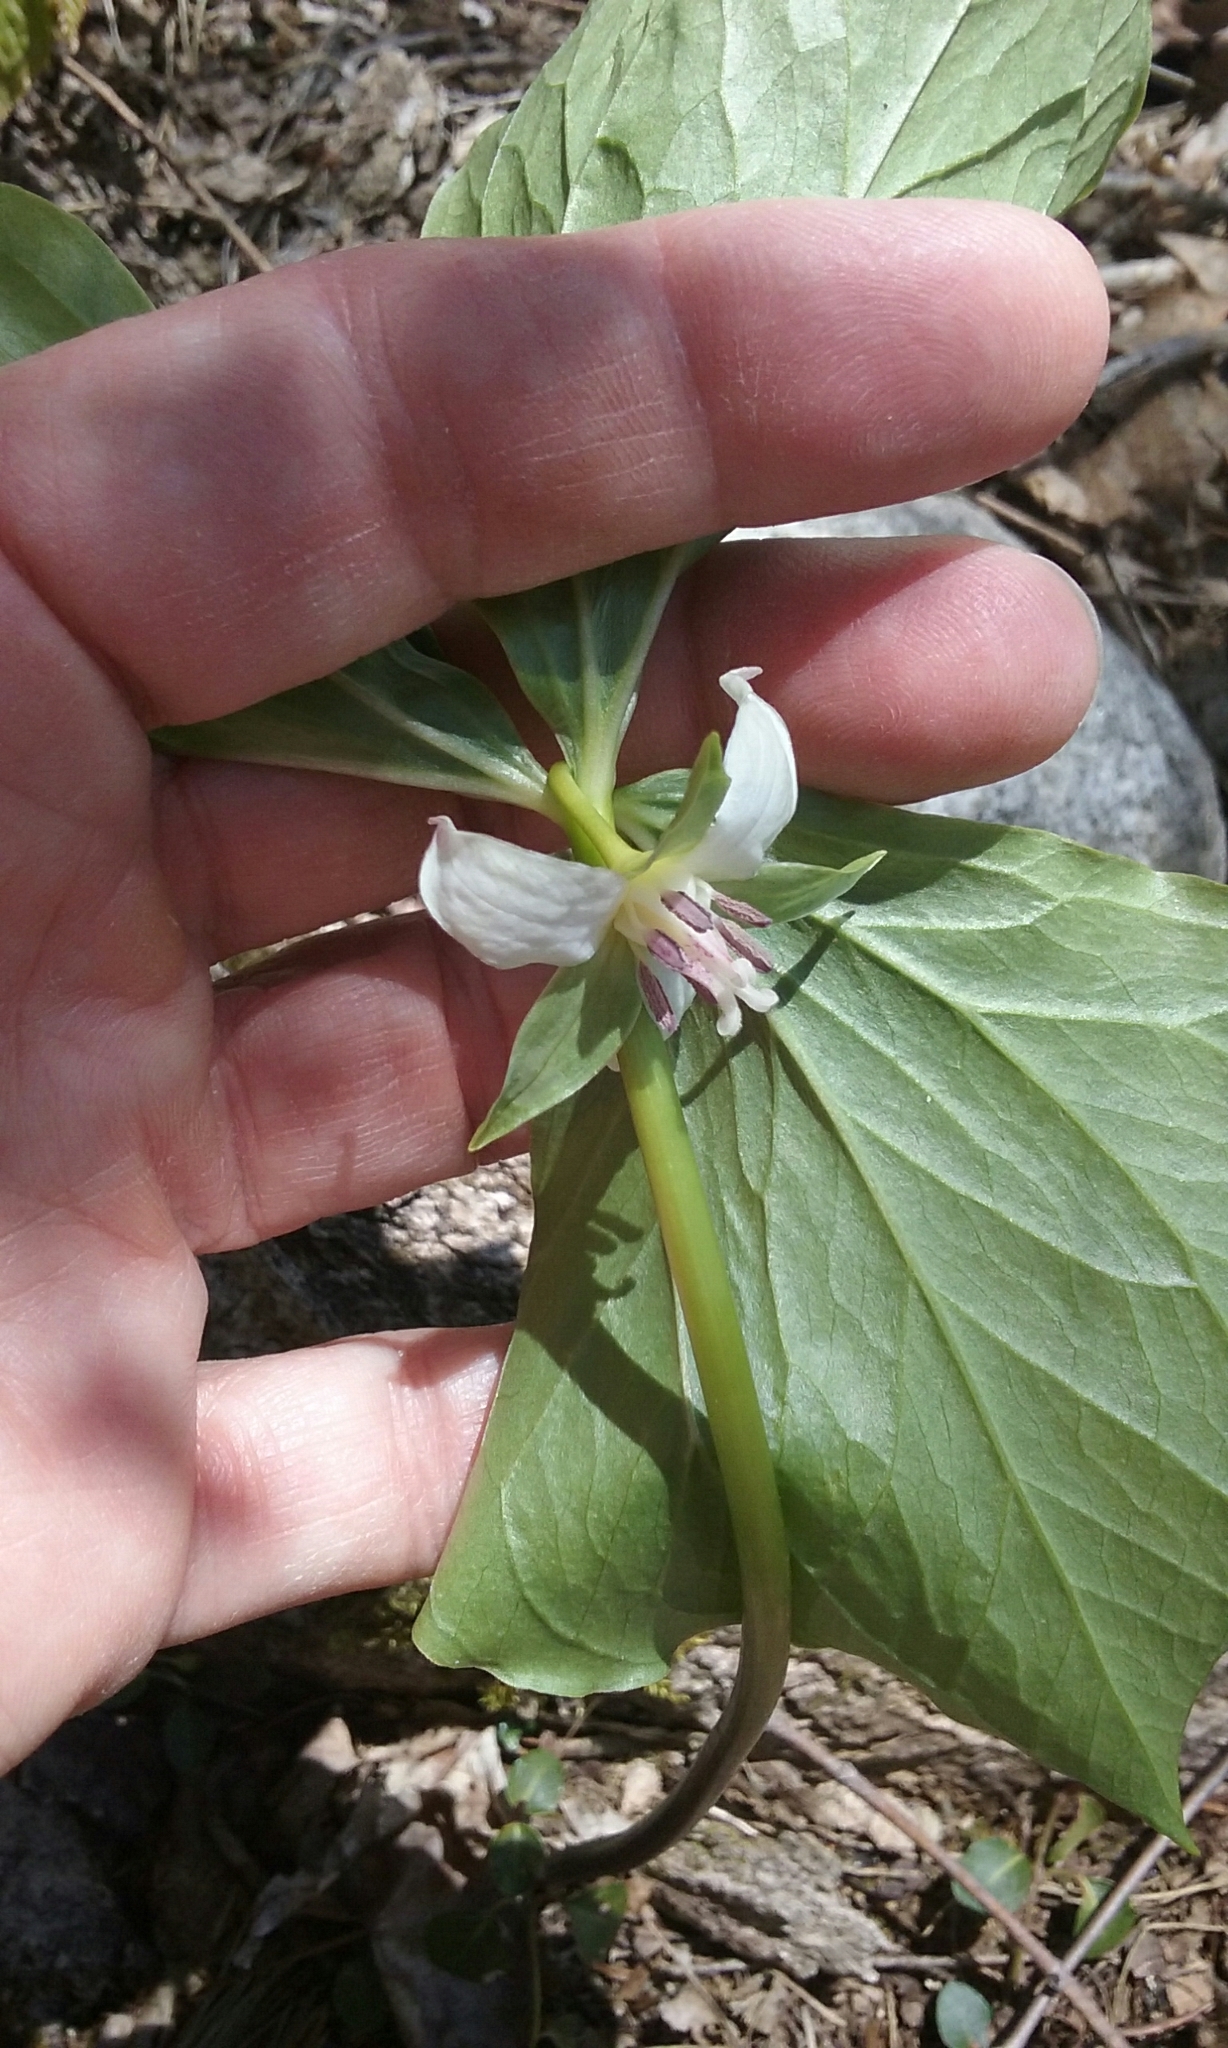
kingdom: Plantae
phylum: Tracheophyta
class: Liliopsida
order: Liliales
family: Melanthiaceae
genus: Trillium
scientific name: Trillium cernuum
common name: Nodding trillium
